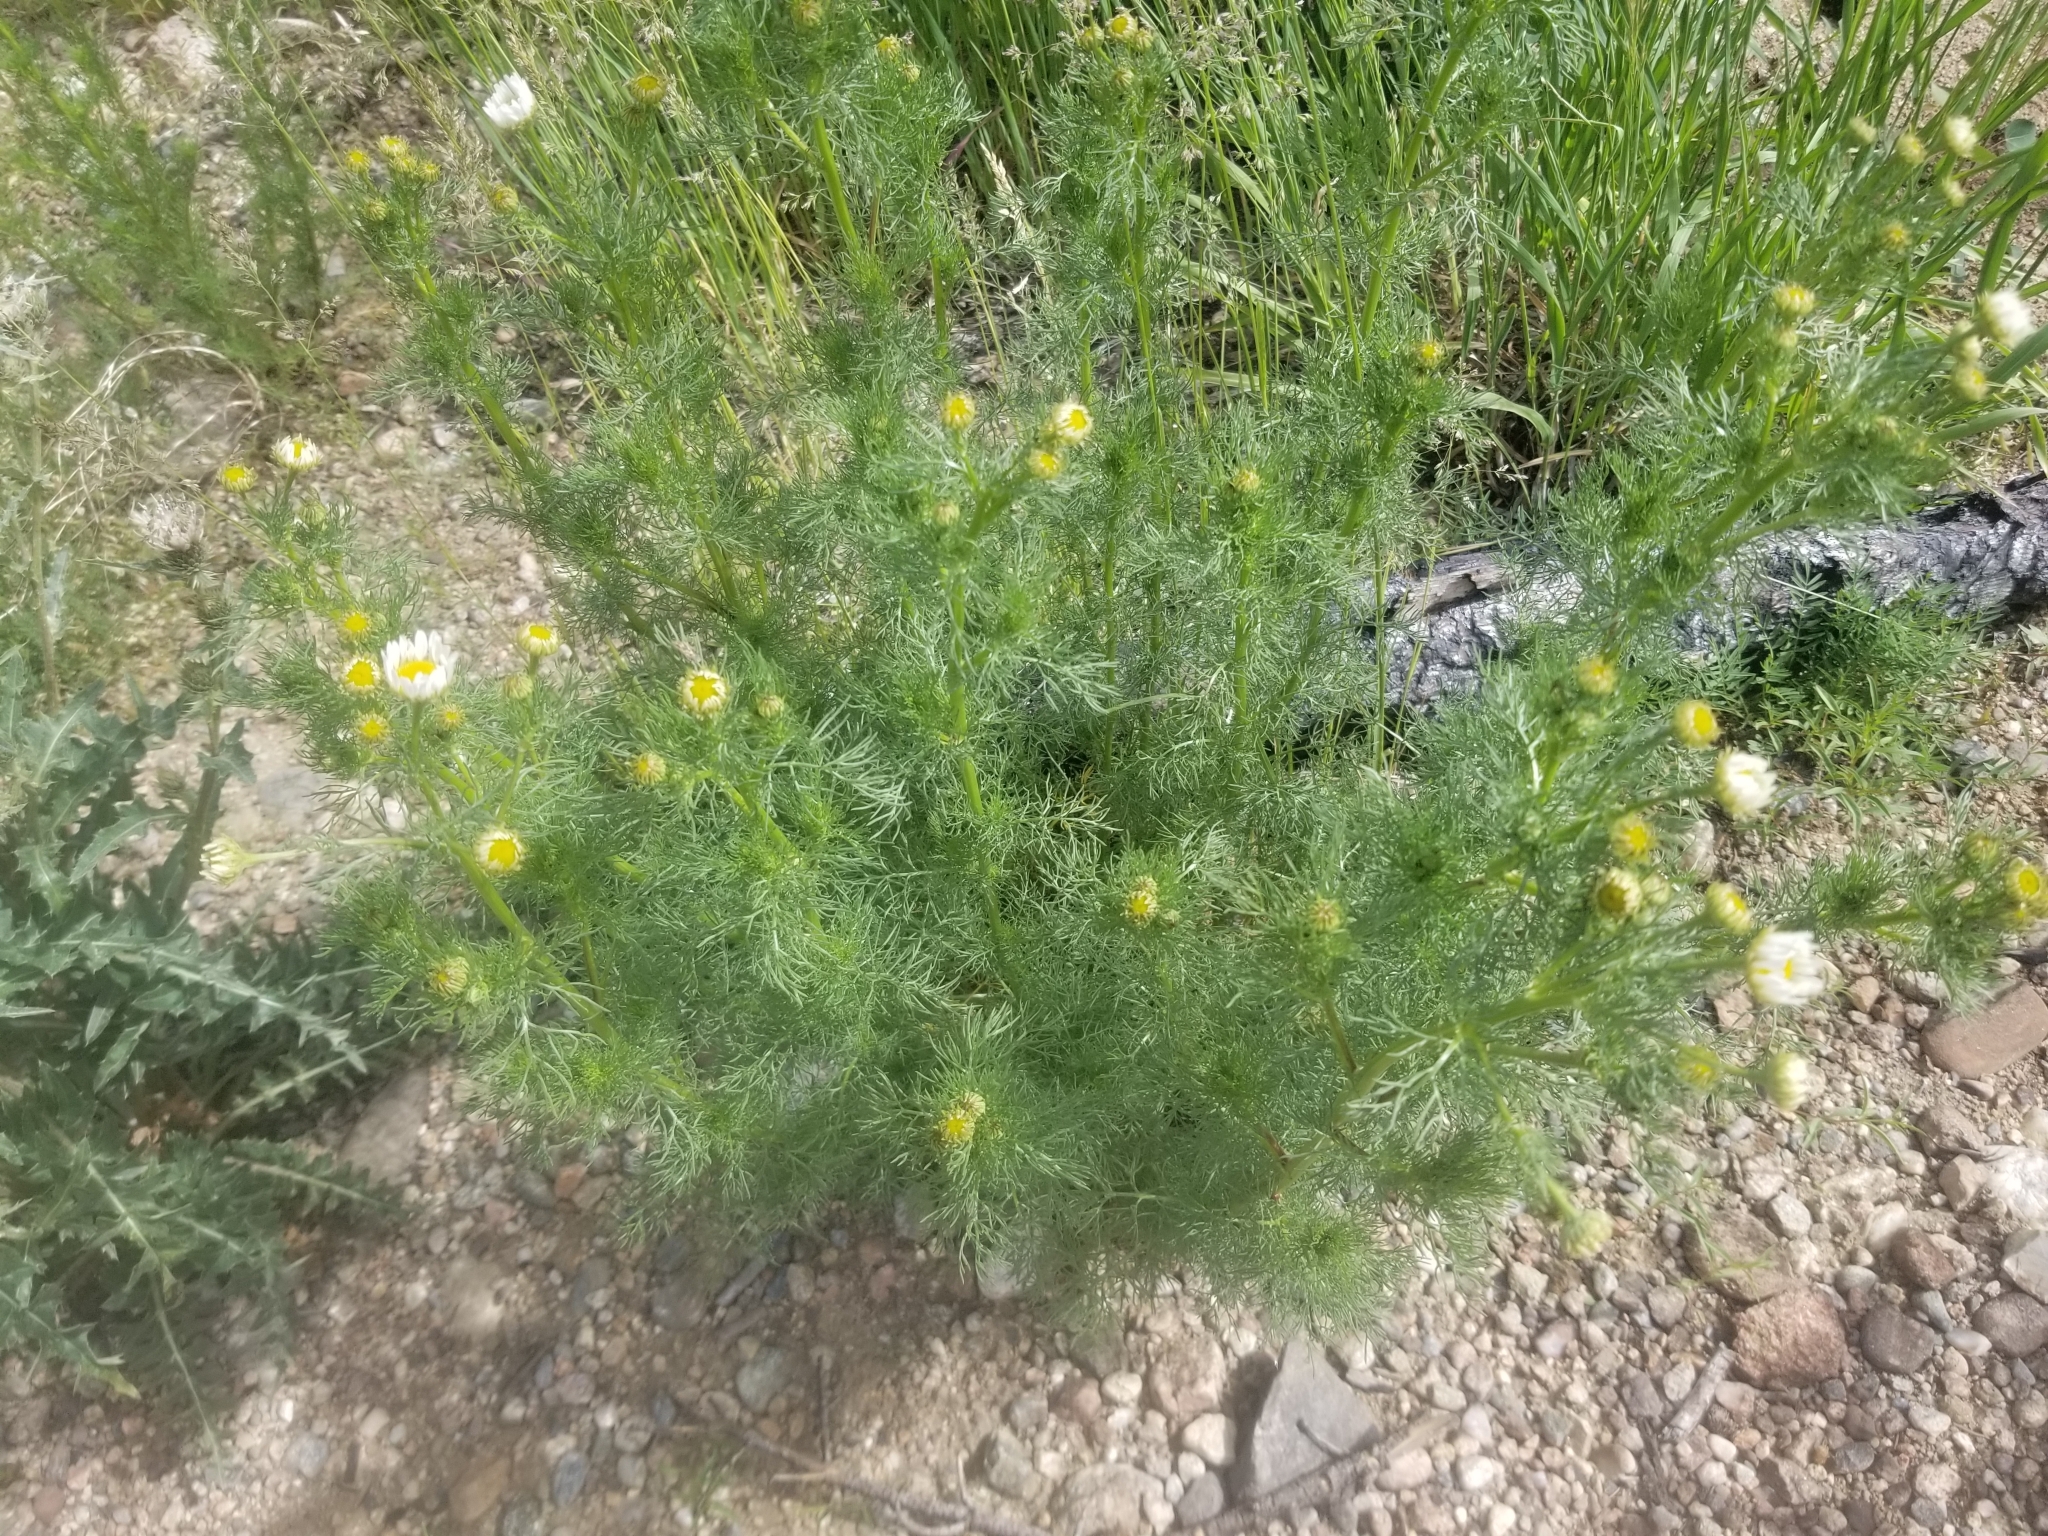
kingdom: Plantae
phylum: Tracheophyta
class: Magnoliopsida
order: Asterales
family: Asteraceae
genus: Tripleurospermum
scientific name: Tripleurospermum inodorum
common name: Scentless mayweed
